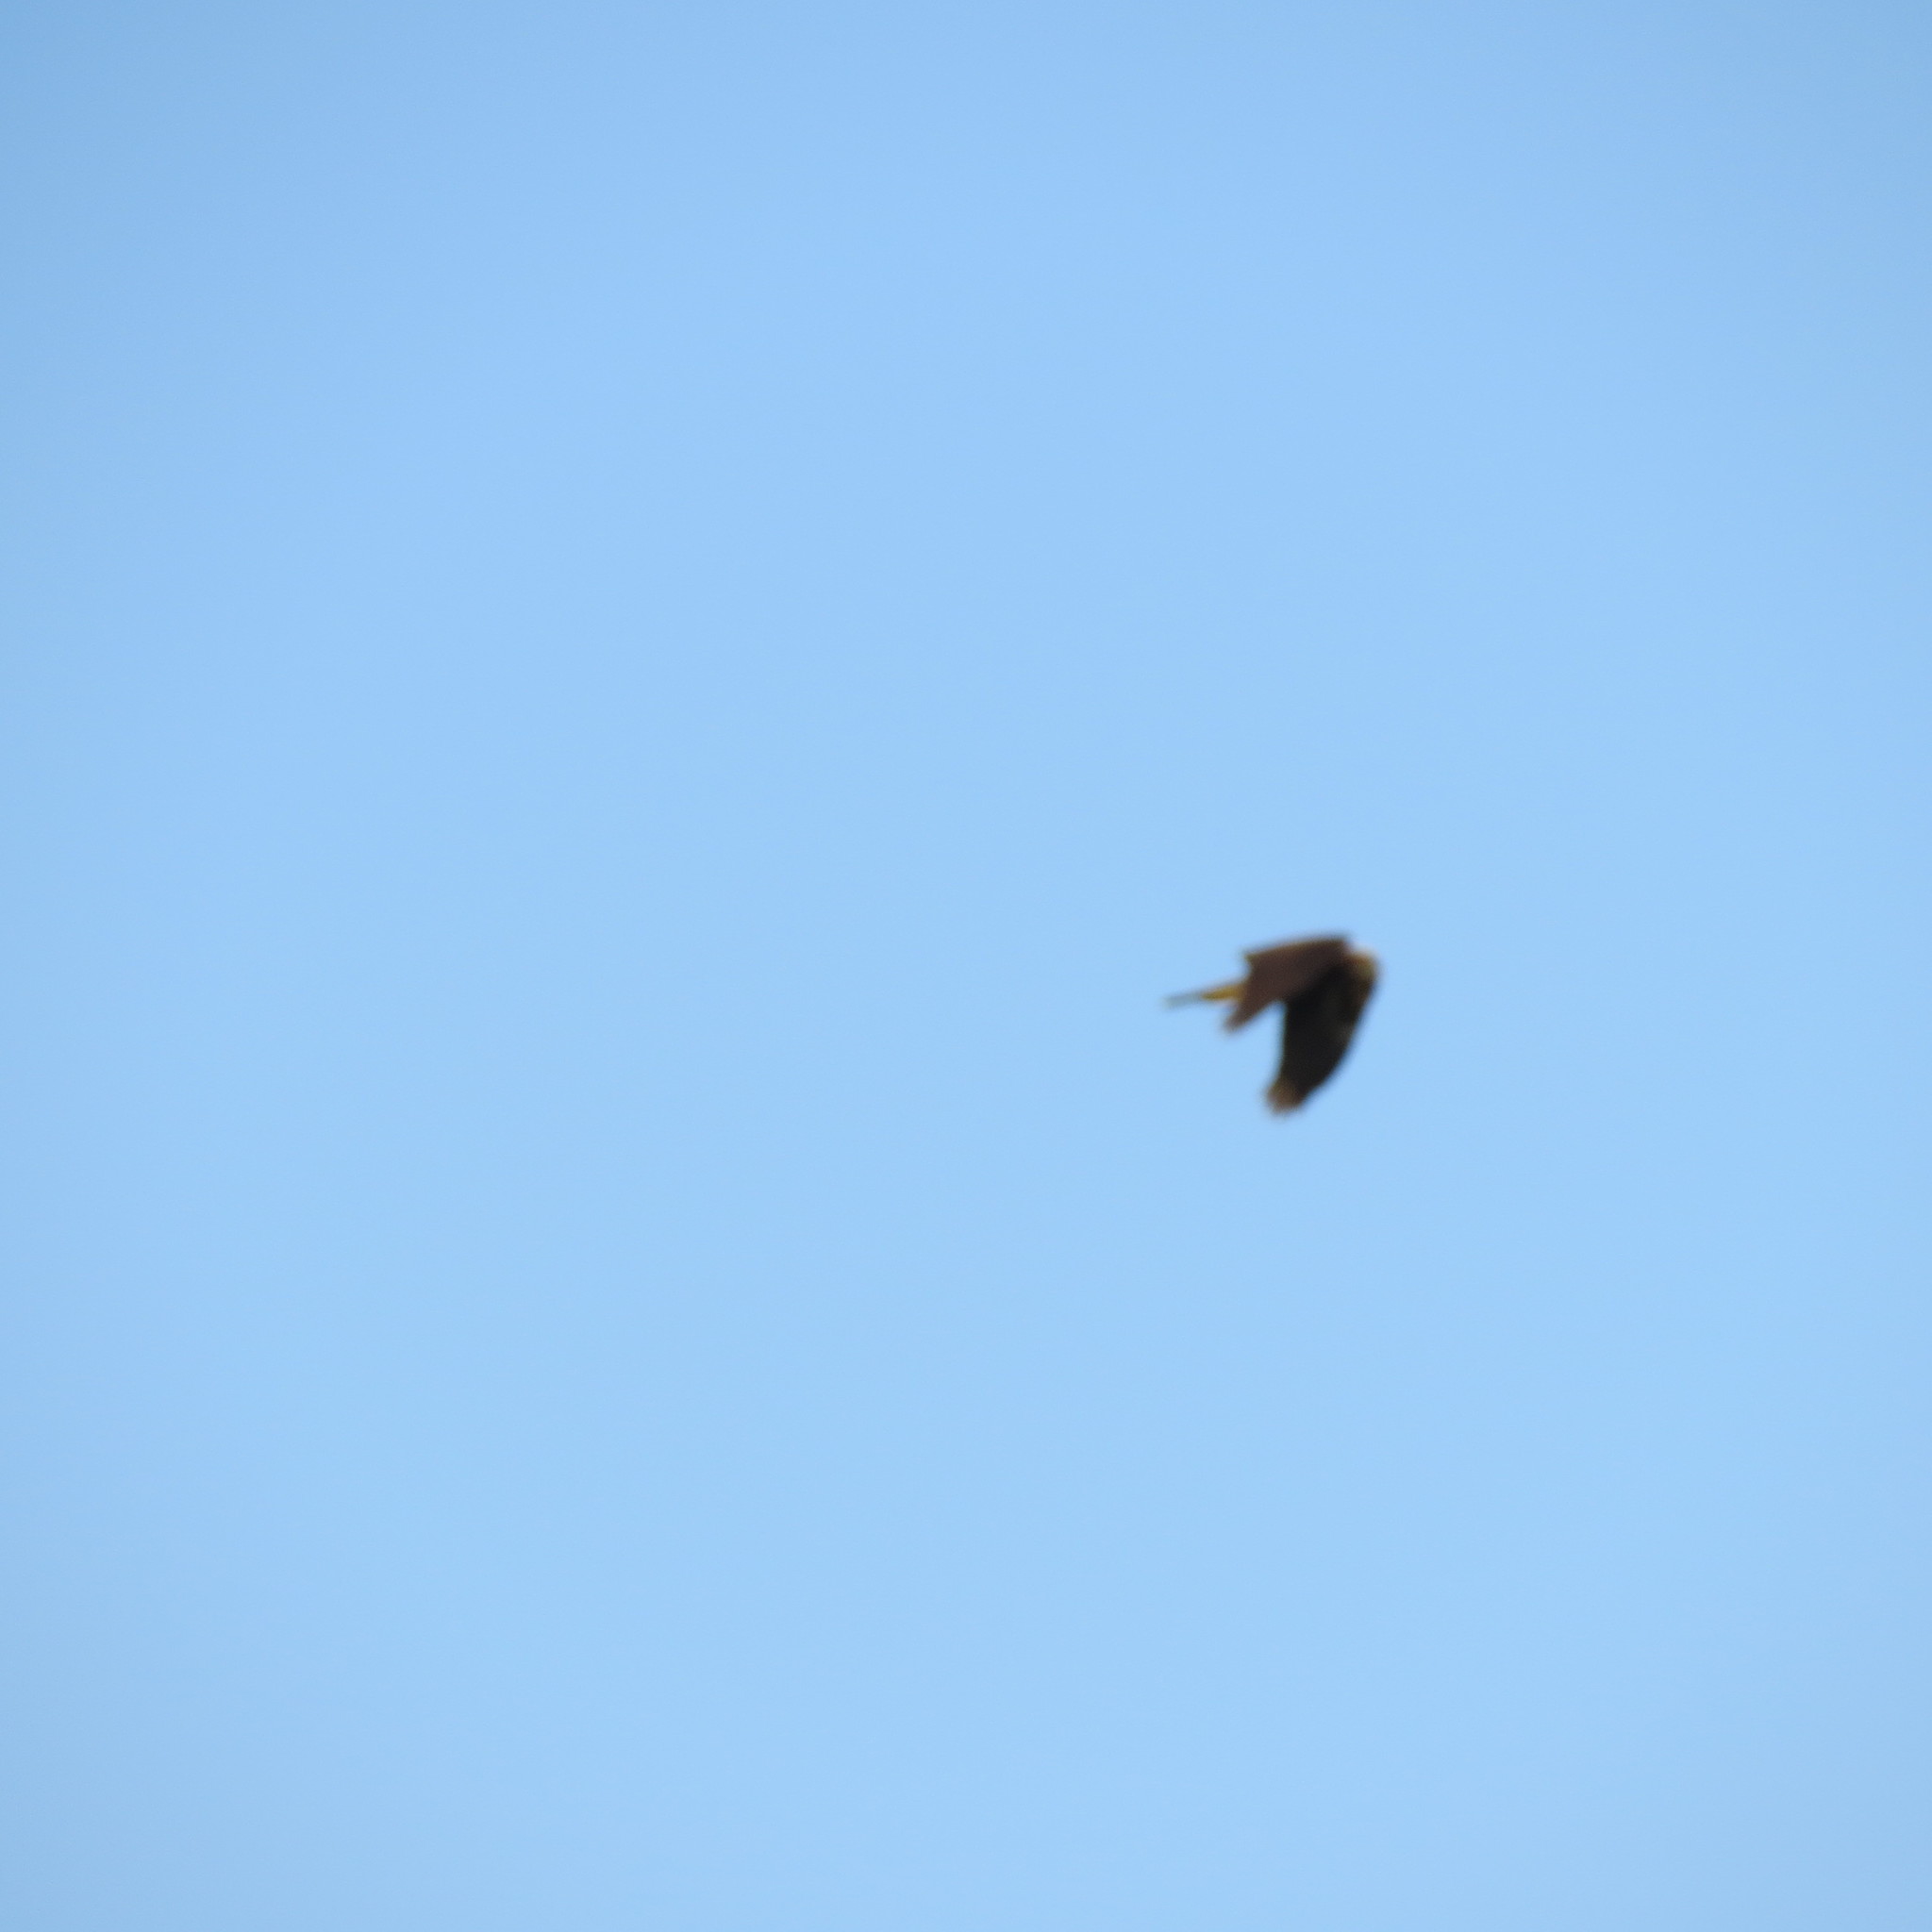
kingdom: Animalia
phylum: Chordata
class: Aves
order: Accipitriformes
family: Accipitridae
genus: Circus
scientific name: Circus aeruginosus
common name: Western marsh harrier
